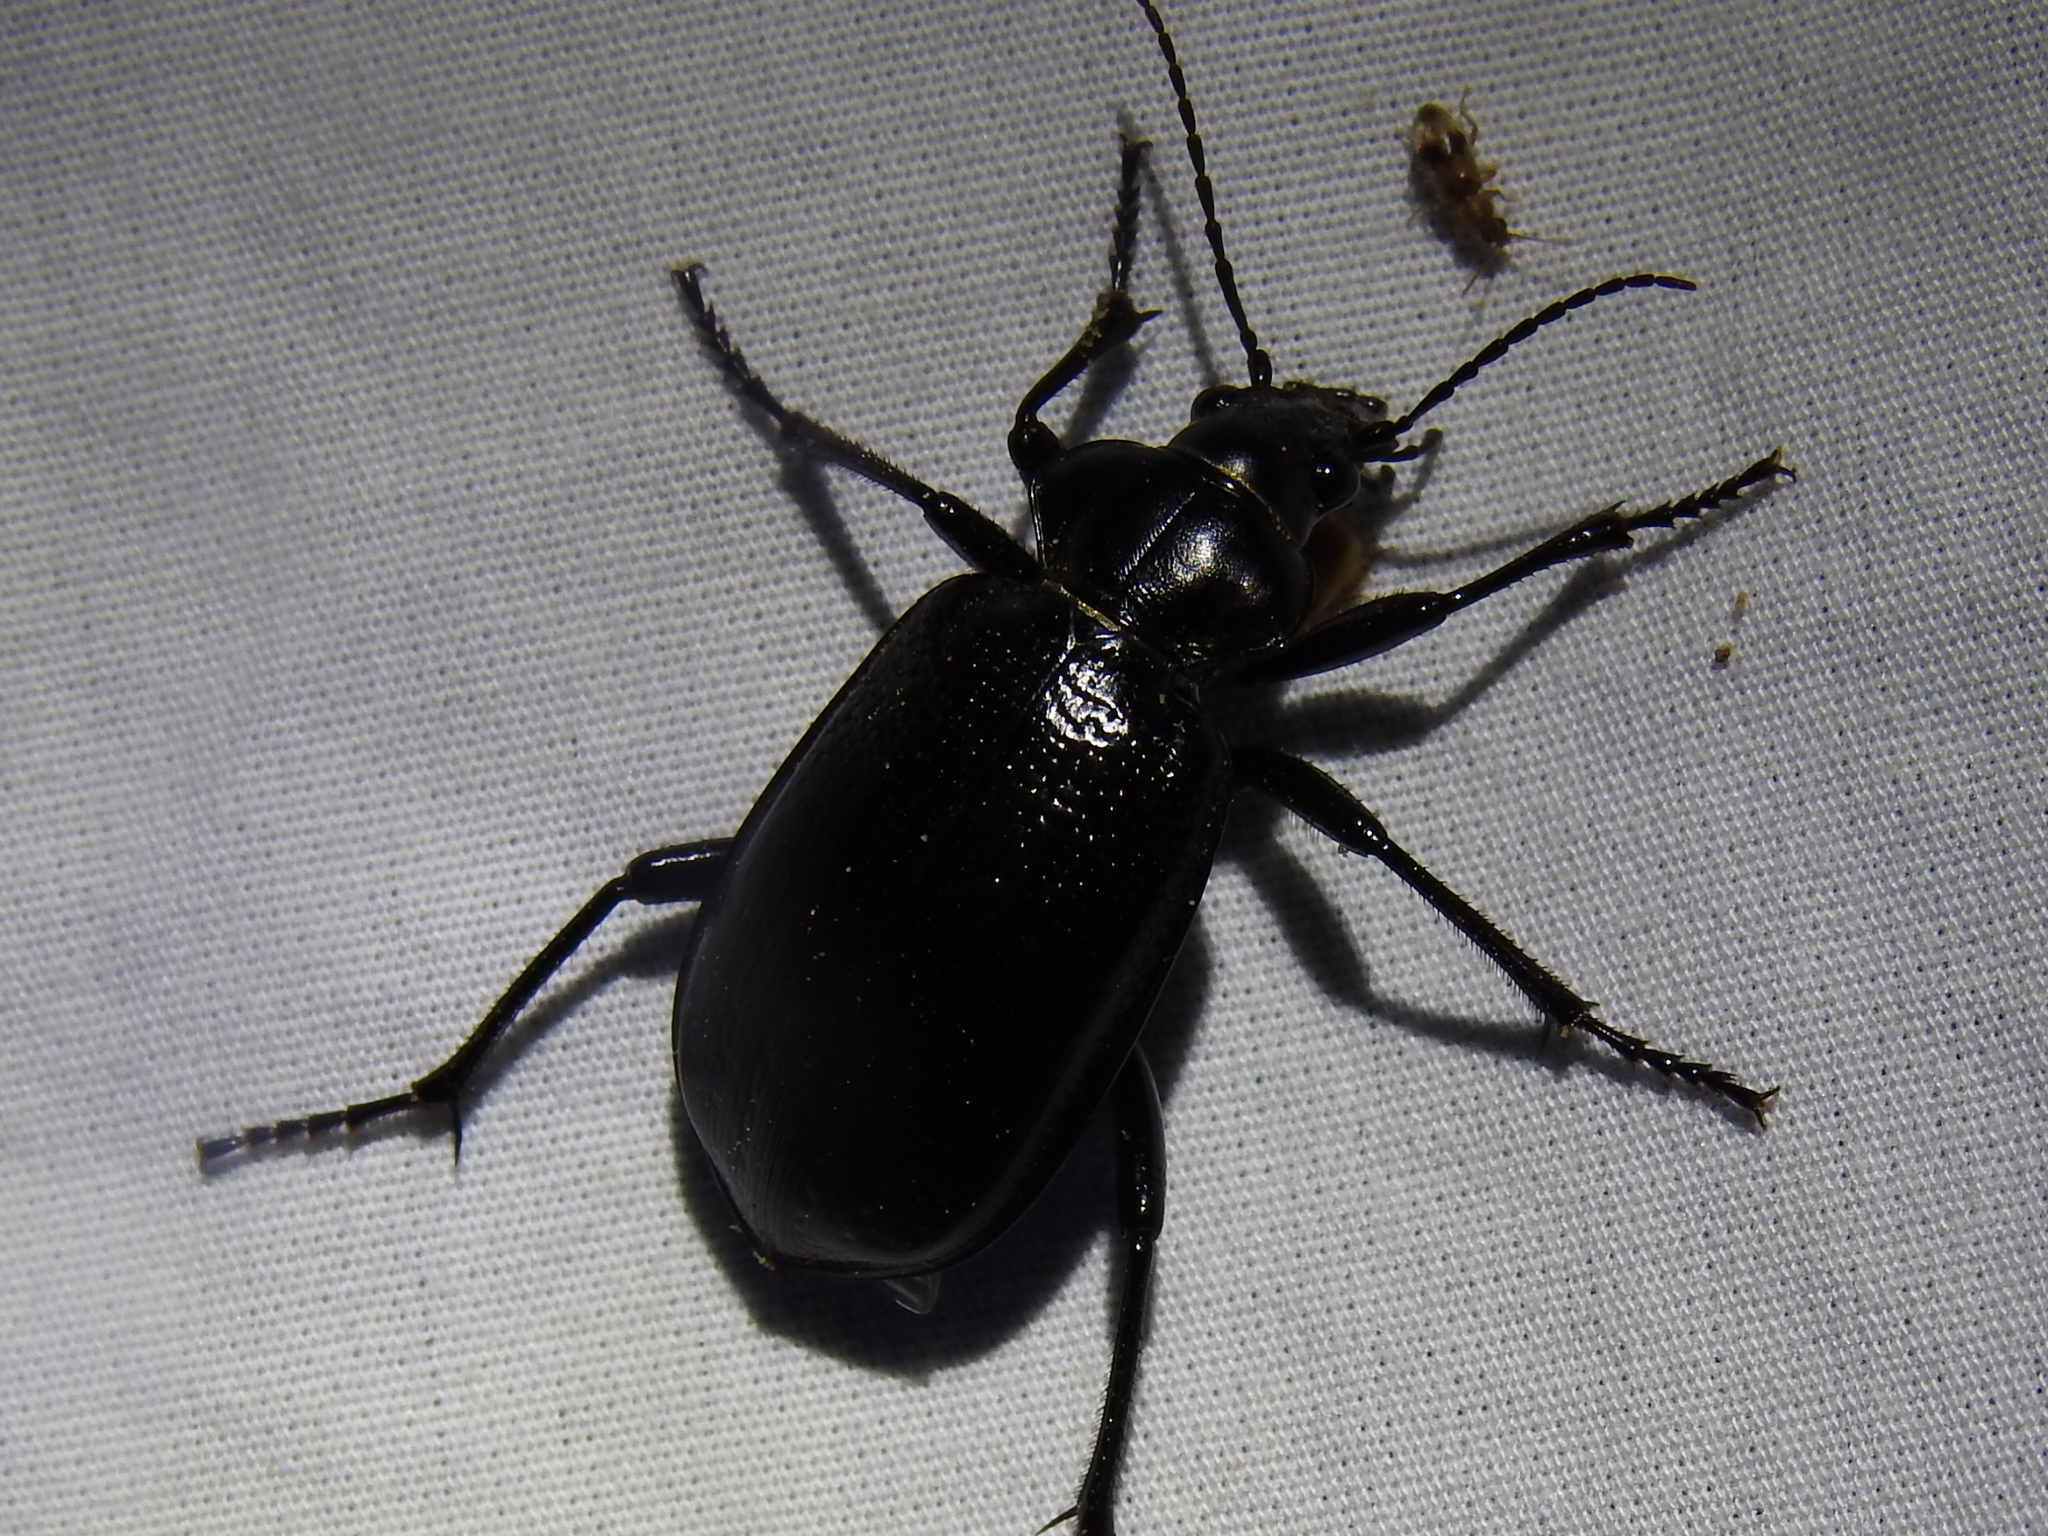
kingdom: Animalia
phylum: Arthropoda
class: Insecta
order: Coleoptera
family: Carabidae
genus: Calosoma
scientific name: Calosoma marginale
